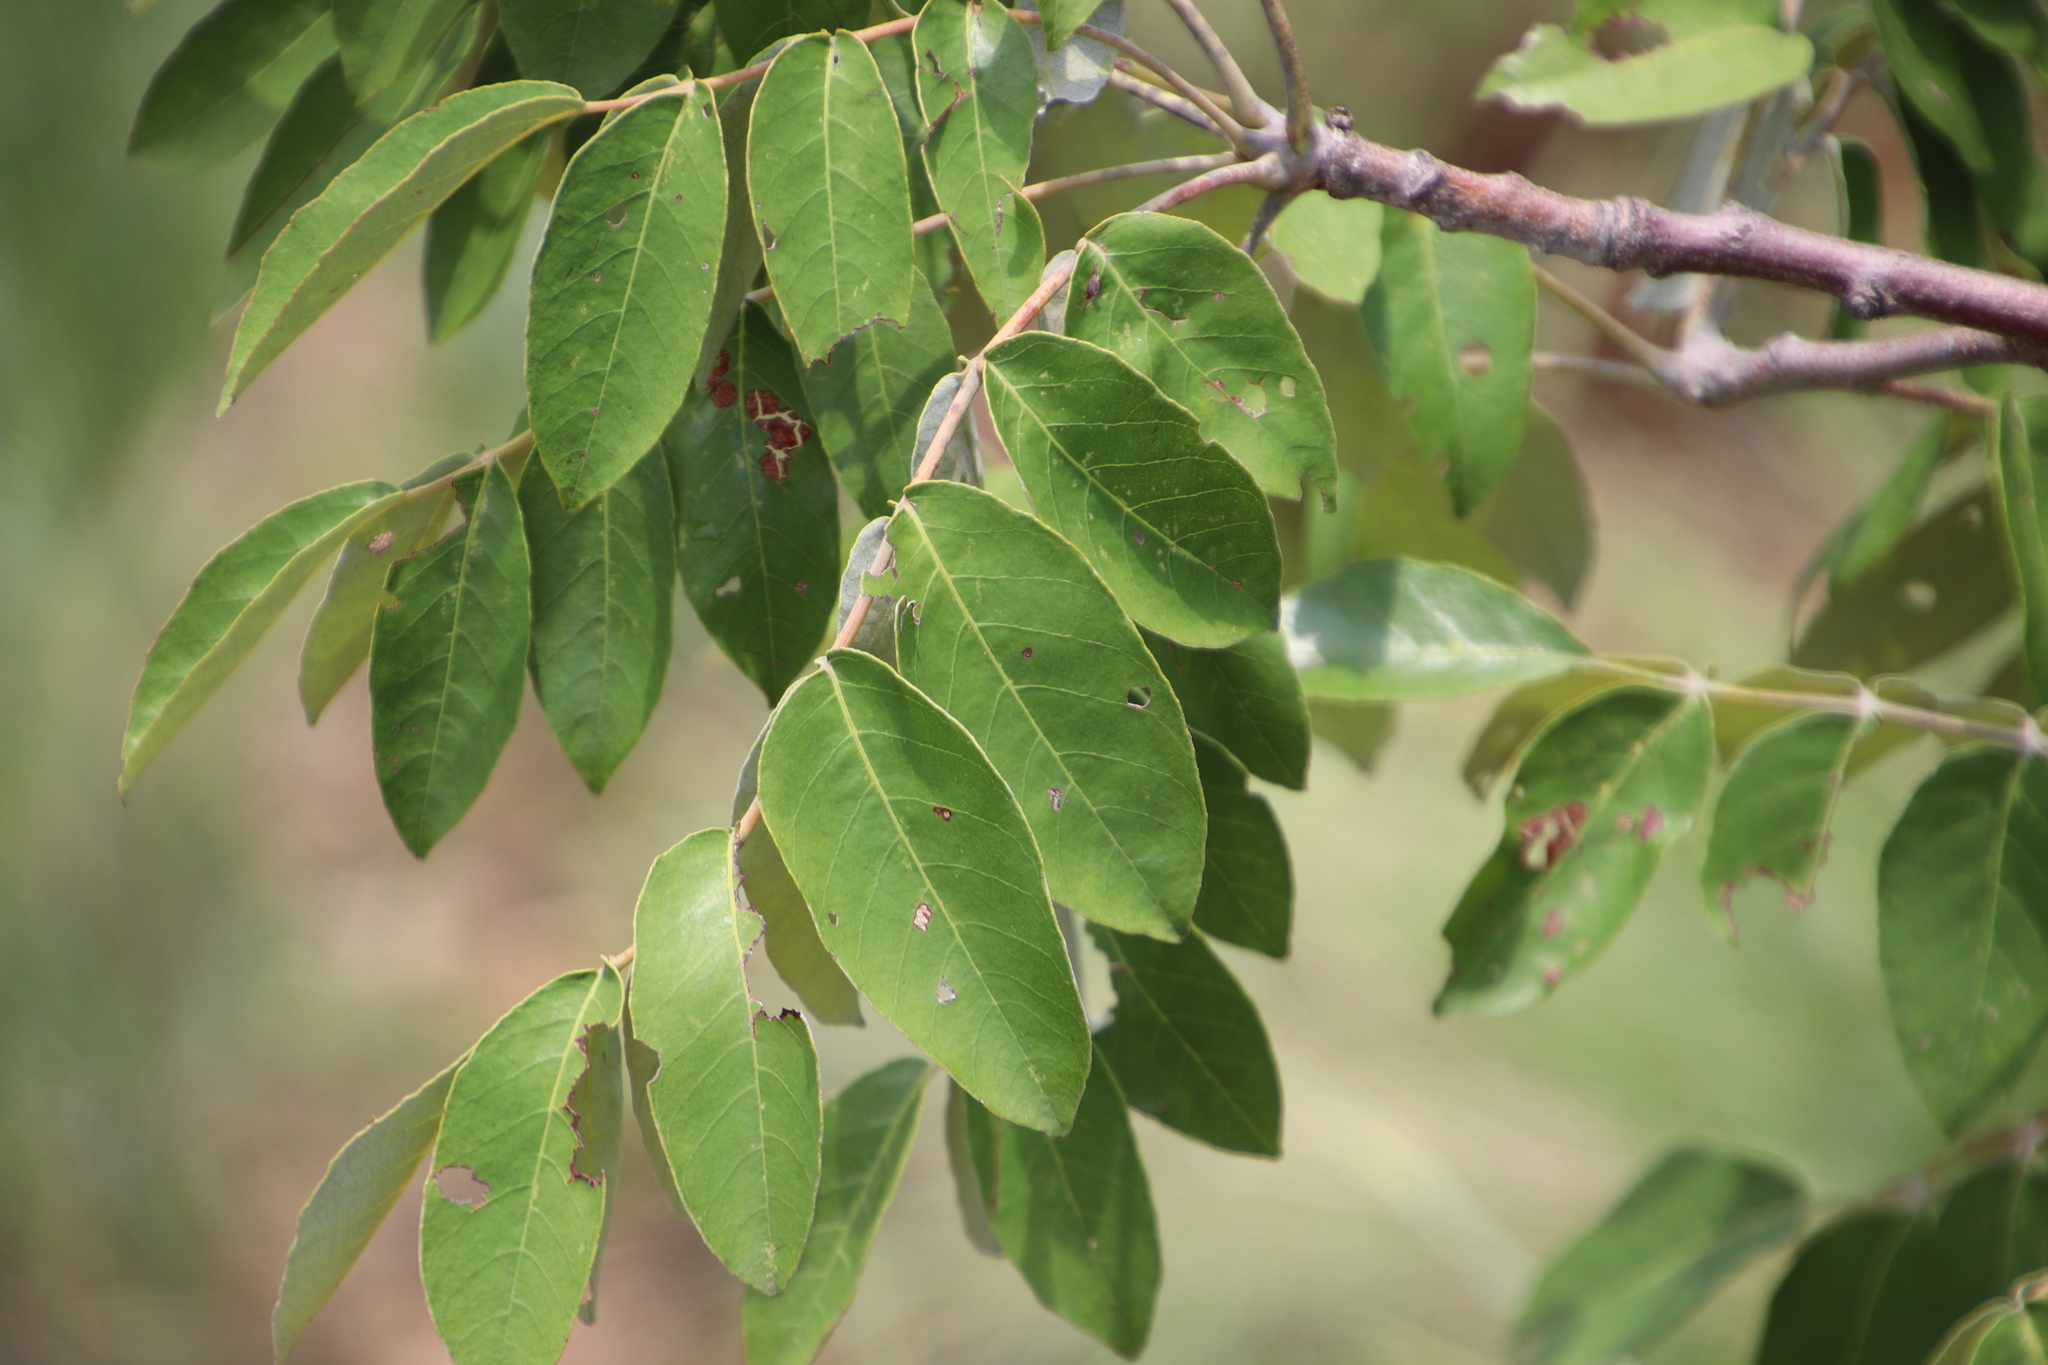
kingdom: Plantae
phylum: Tracheophyta
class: Magnoliopsida
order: Sapindales
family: Anacardiaceae
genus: Lannea
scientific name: Lannea discolor
